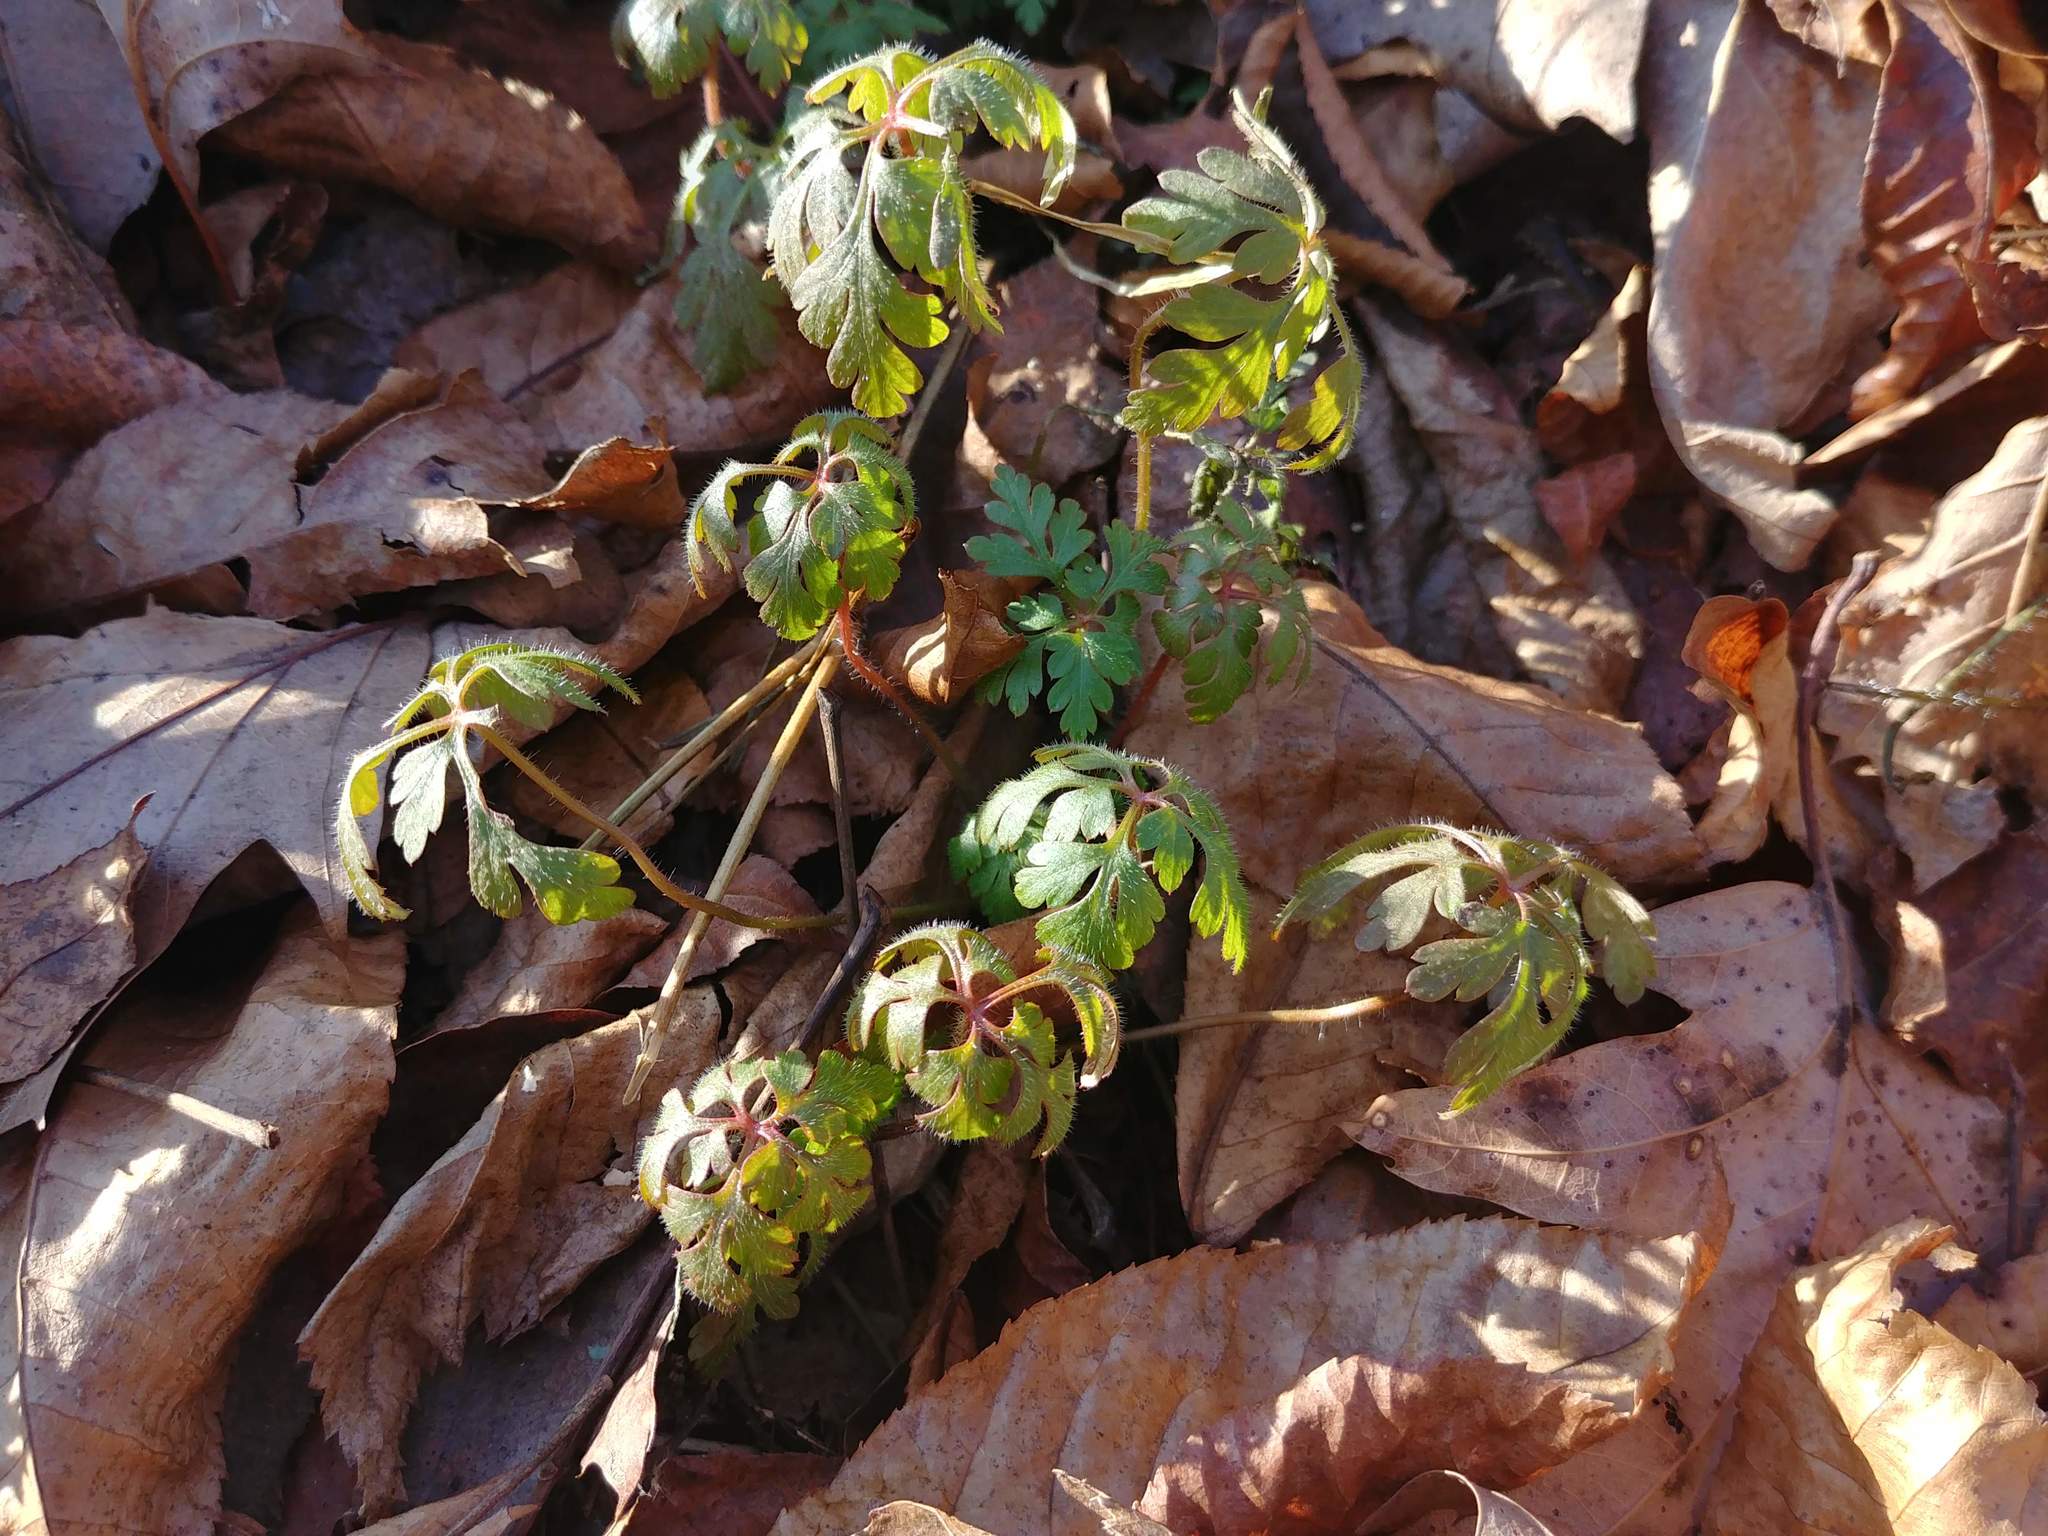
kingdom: Plantae
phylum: Tracheophyta
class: Magnoliopsida
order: Geraniales
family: Geraniaceae
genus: Geranium
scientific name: Geranium robertianum
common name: Herb-robert
